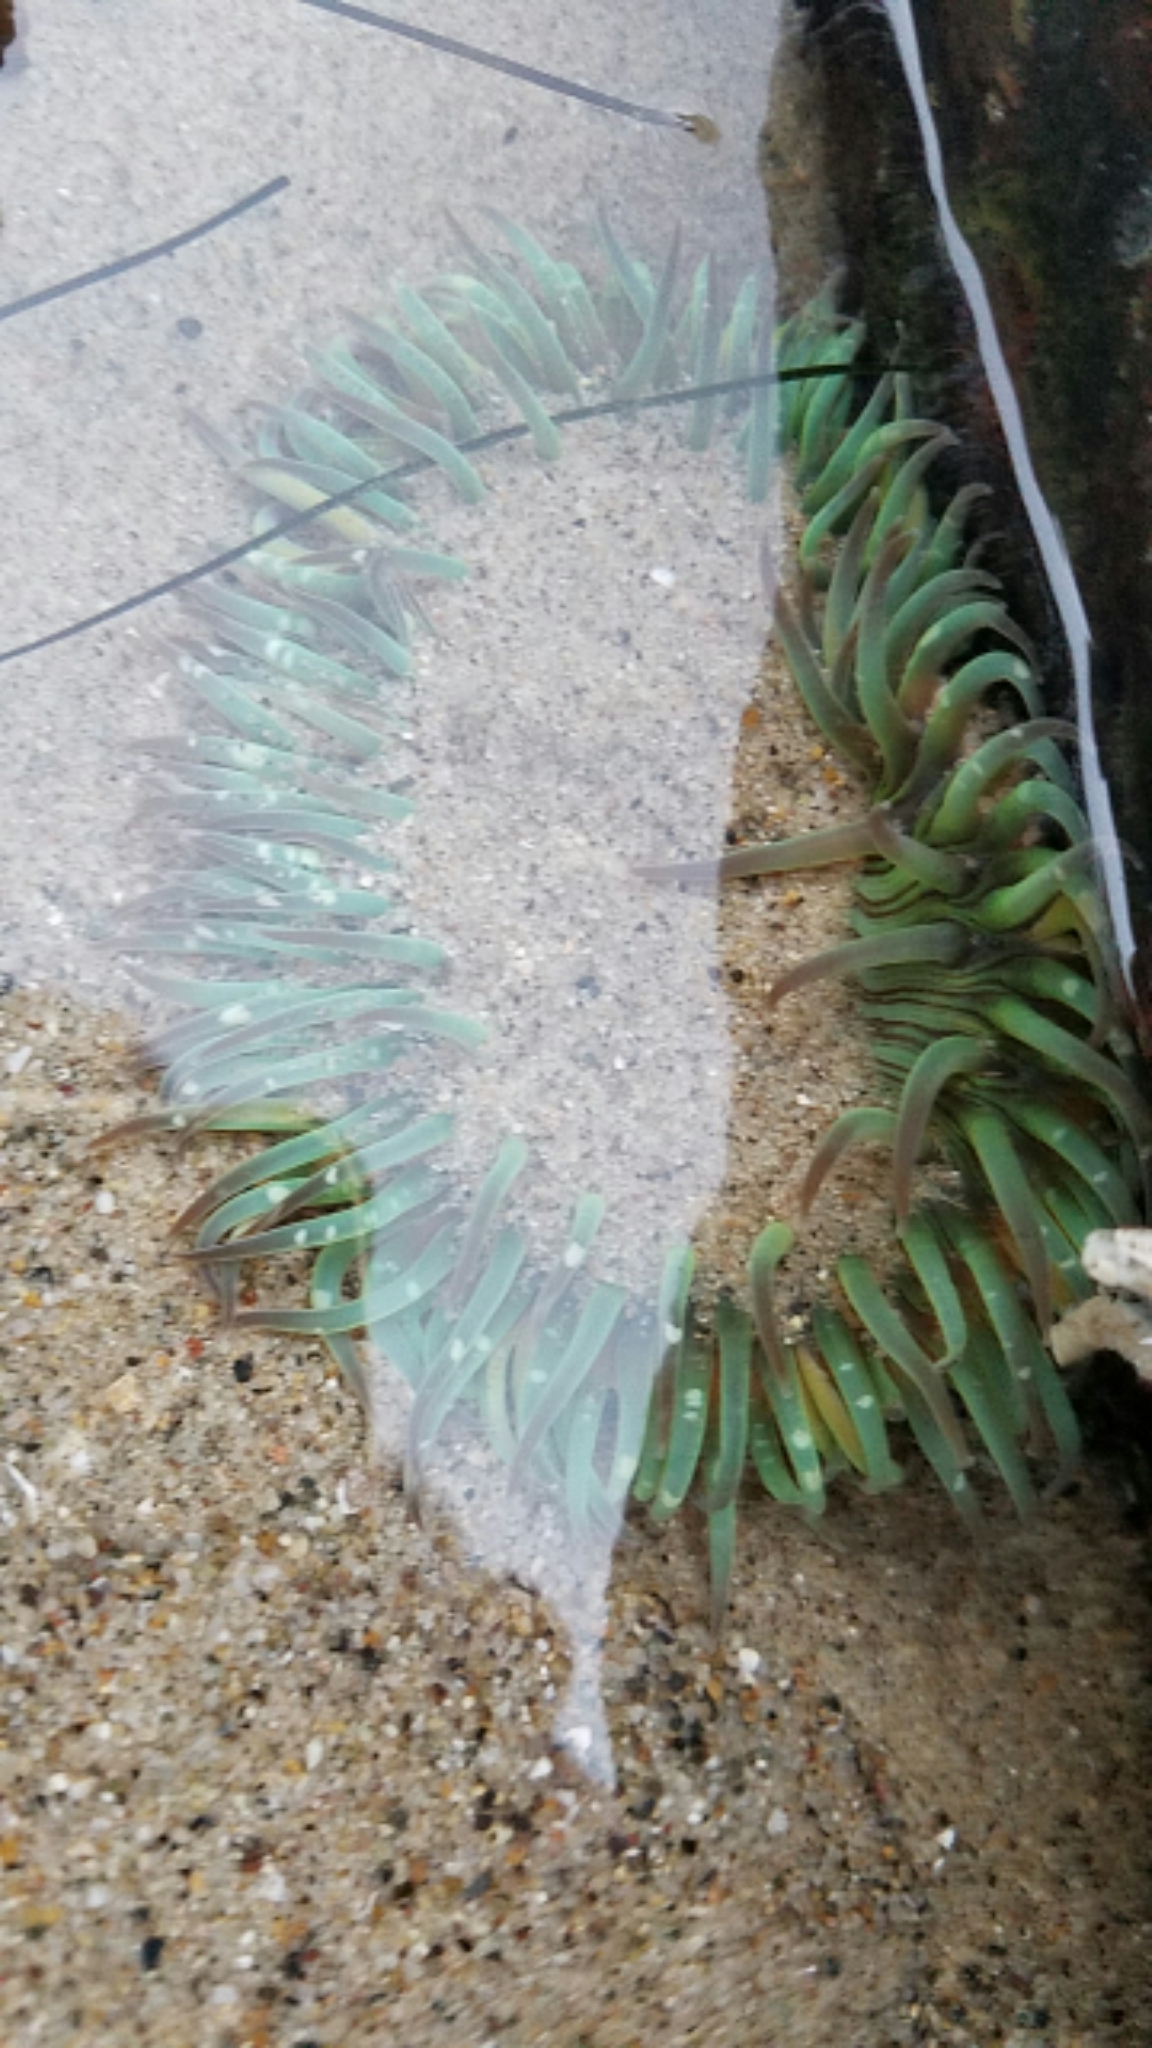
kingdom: Animalia
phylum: Cnidaria
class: Anthozoa
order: Actiniaria
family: Actiniidae
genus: Anthopleura
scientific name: Anthopleura sola
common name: Sun anemone
